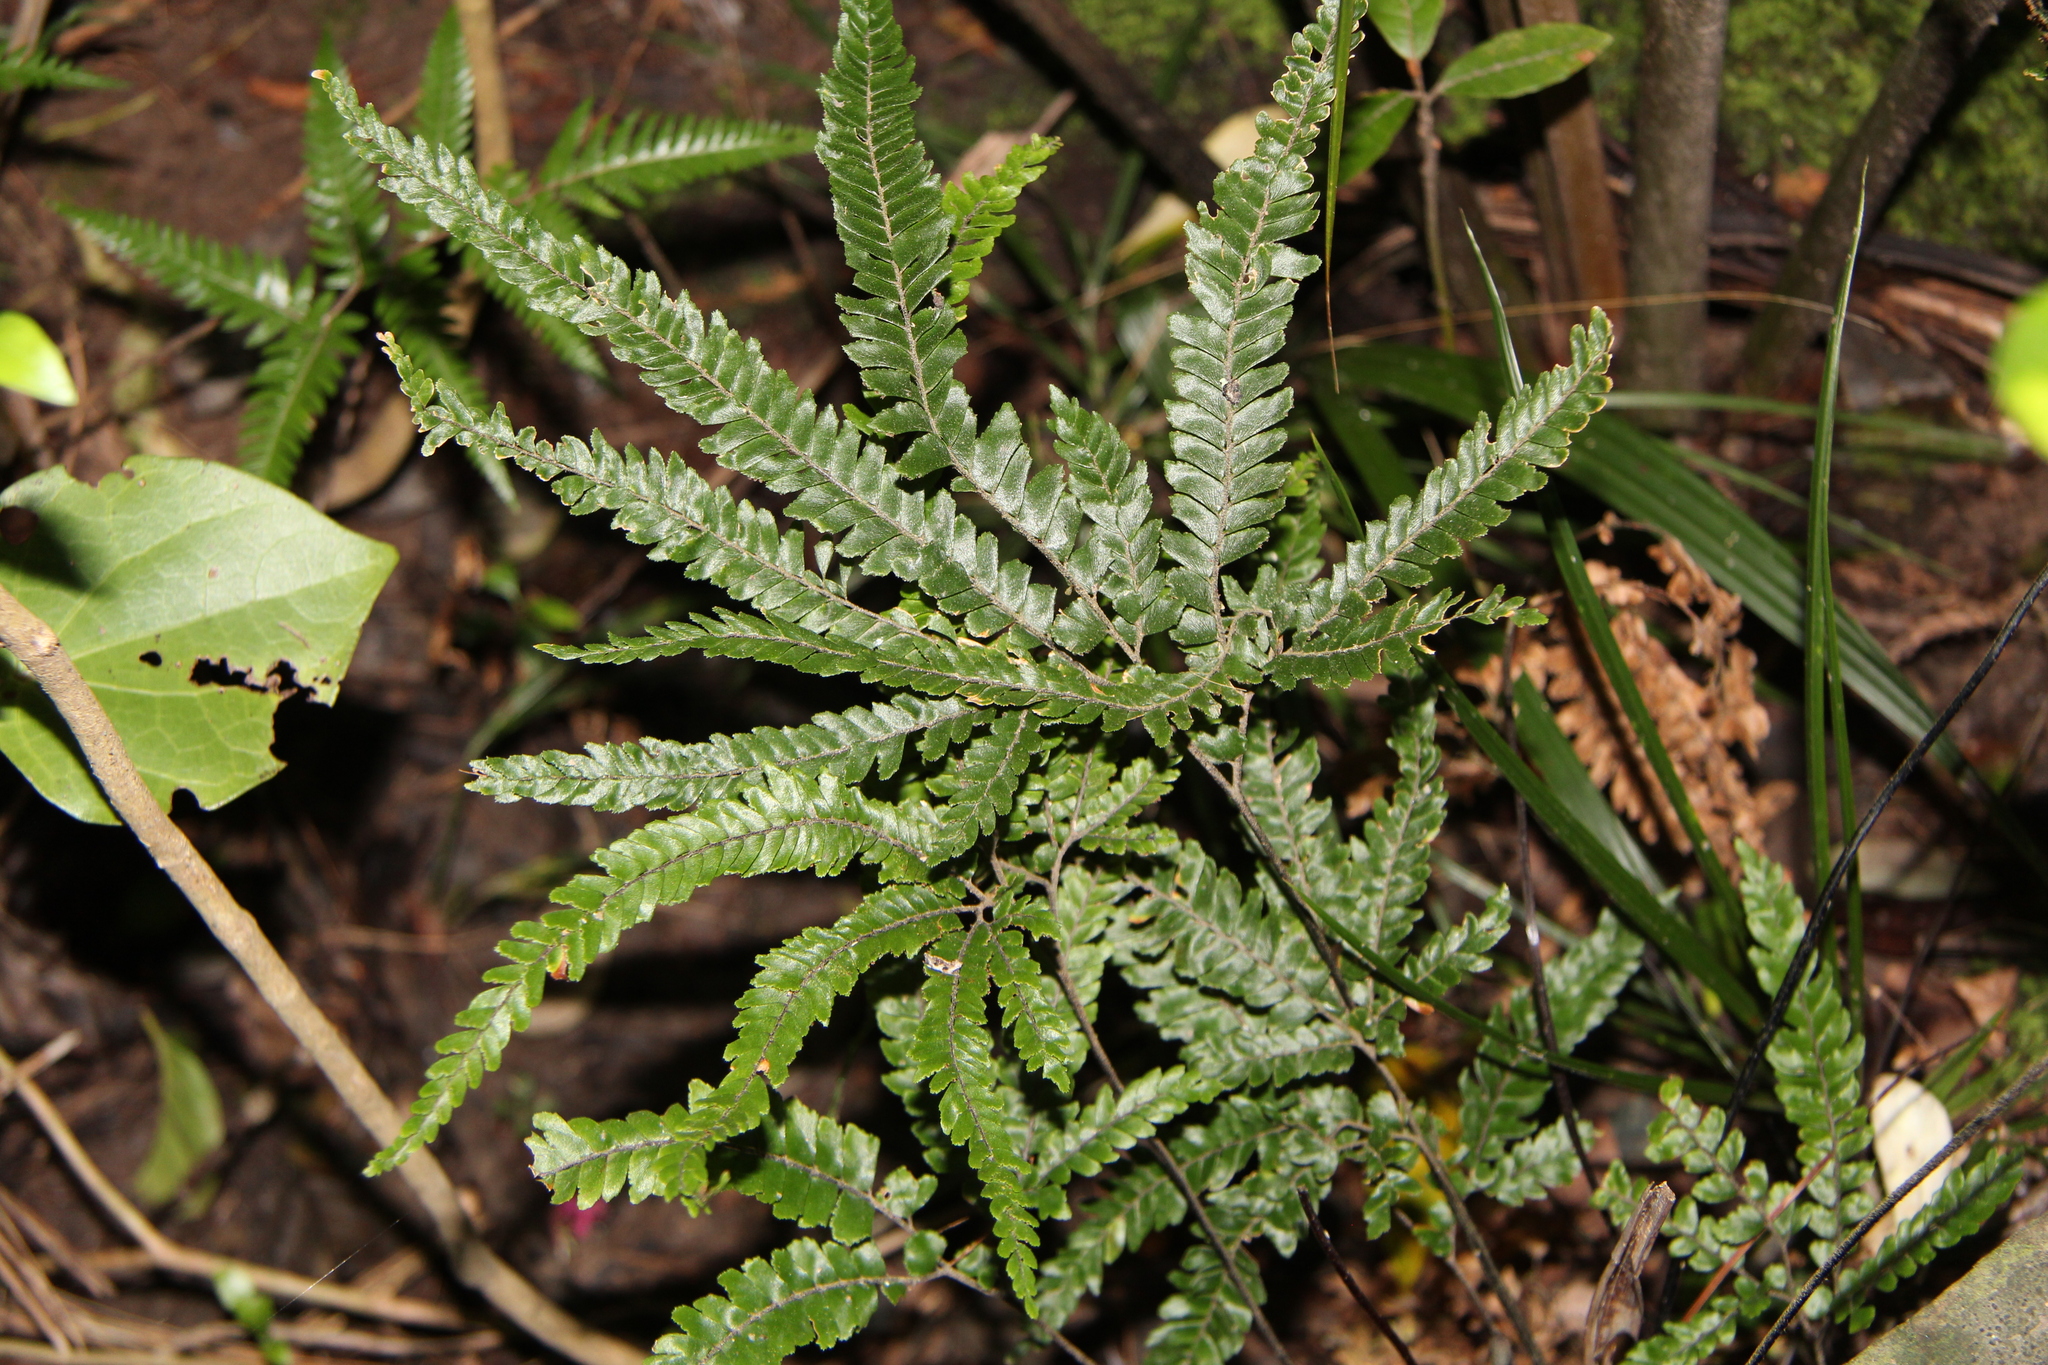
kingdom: Plantae
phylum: Tracheophyta
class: Polypodiopsida
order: Polypodiales
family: Pteridaceae
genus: Adiantum
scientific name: Adiantum hispidulum
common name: Rough maidenhair
